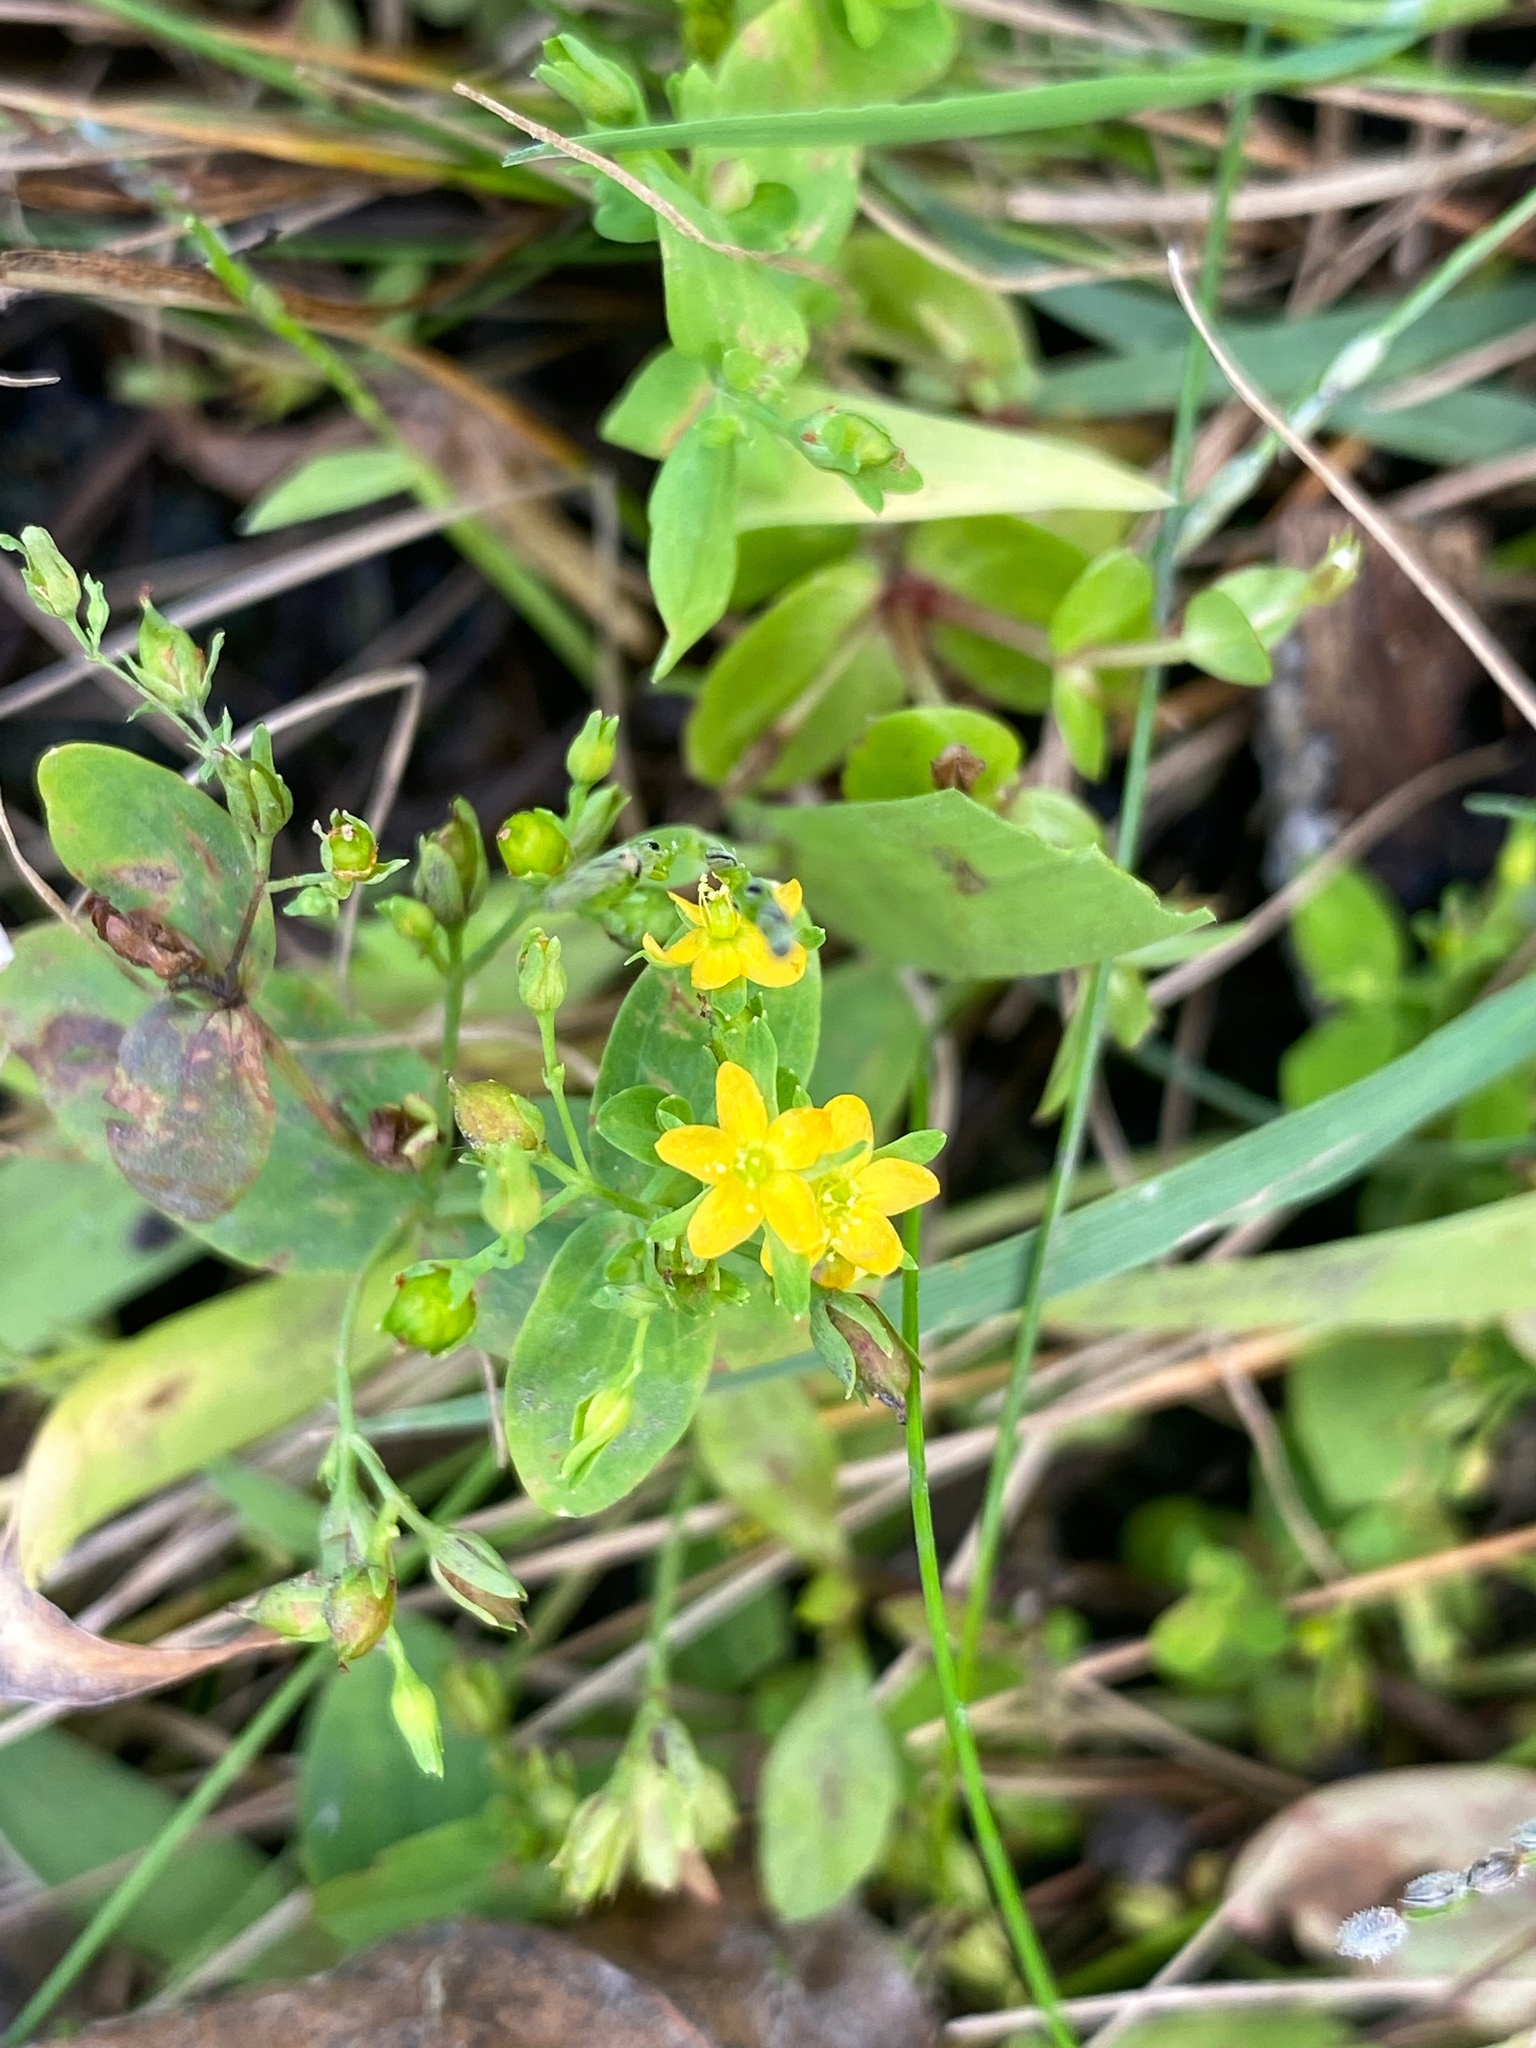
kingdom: Plantae
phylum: Tracheophyta
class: Magnoliopsida
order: Malpighiales
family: Hypericaceae
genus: Hypericum
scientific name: Hypericum mutilum
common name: Dwarf st. john's-wort
